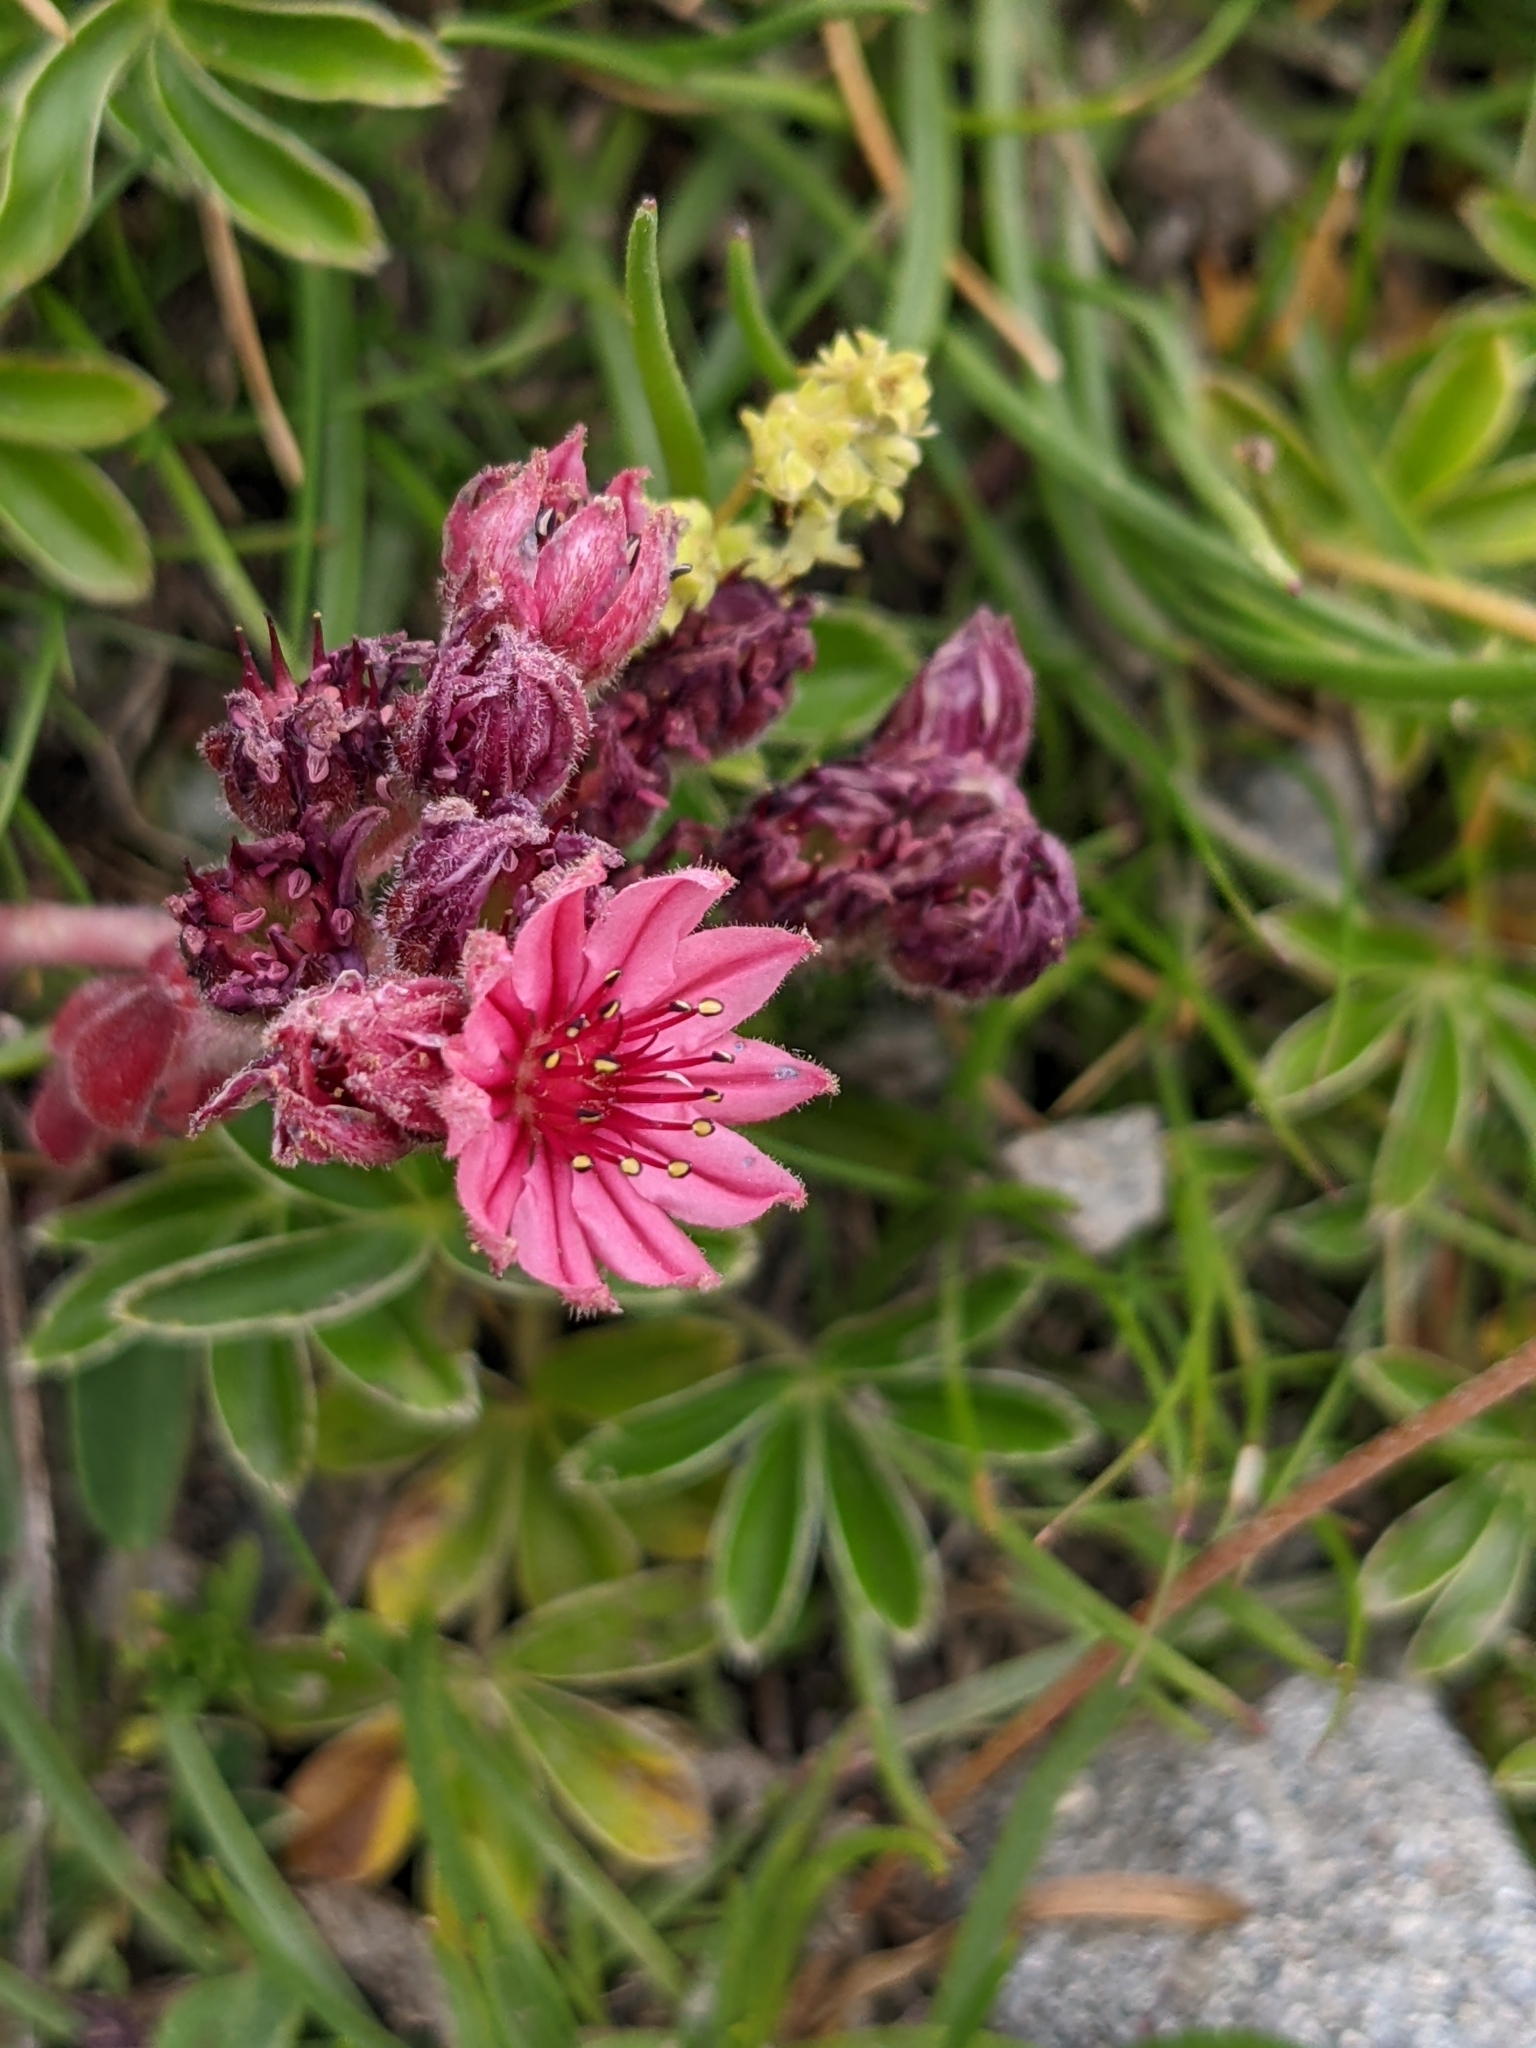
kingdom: Plantae
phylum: Tracheophyta
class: Magnoliopsida
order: Saxifragales
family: Crassulaceae
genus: Sempervivum
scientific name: Sempervivum arachnoideum
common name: Cobweb house-leek
